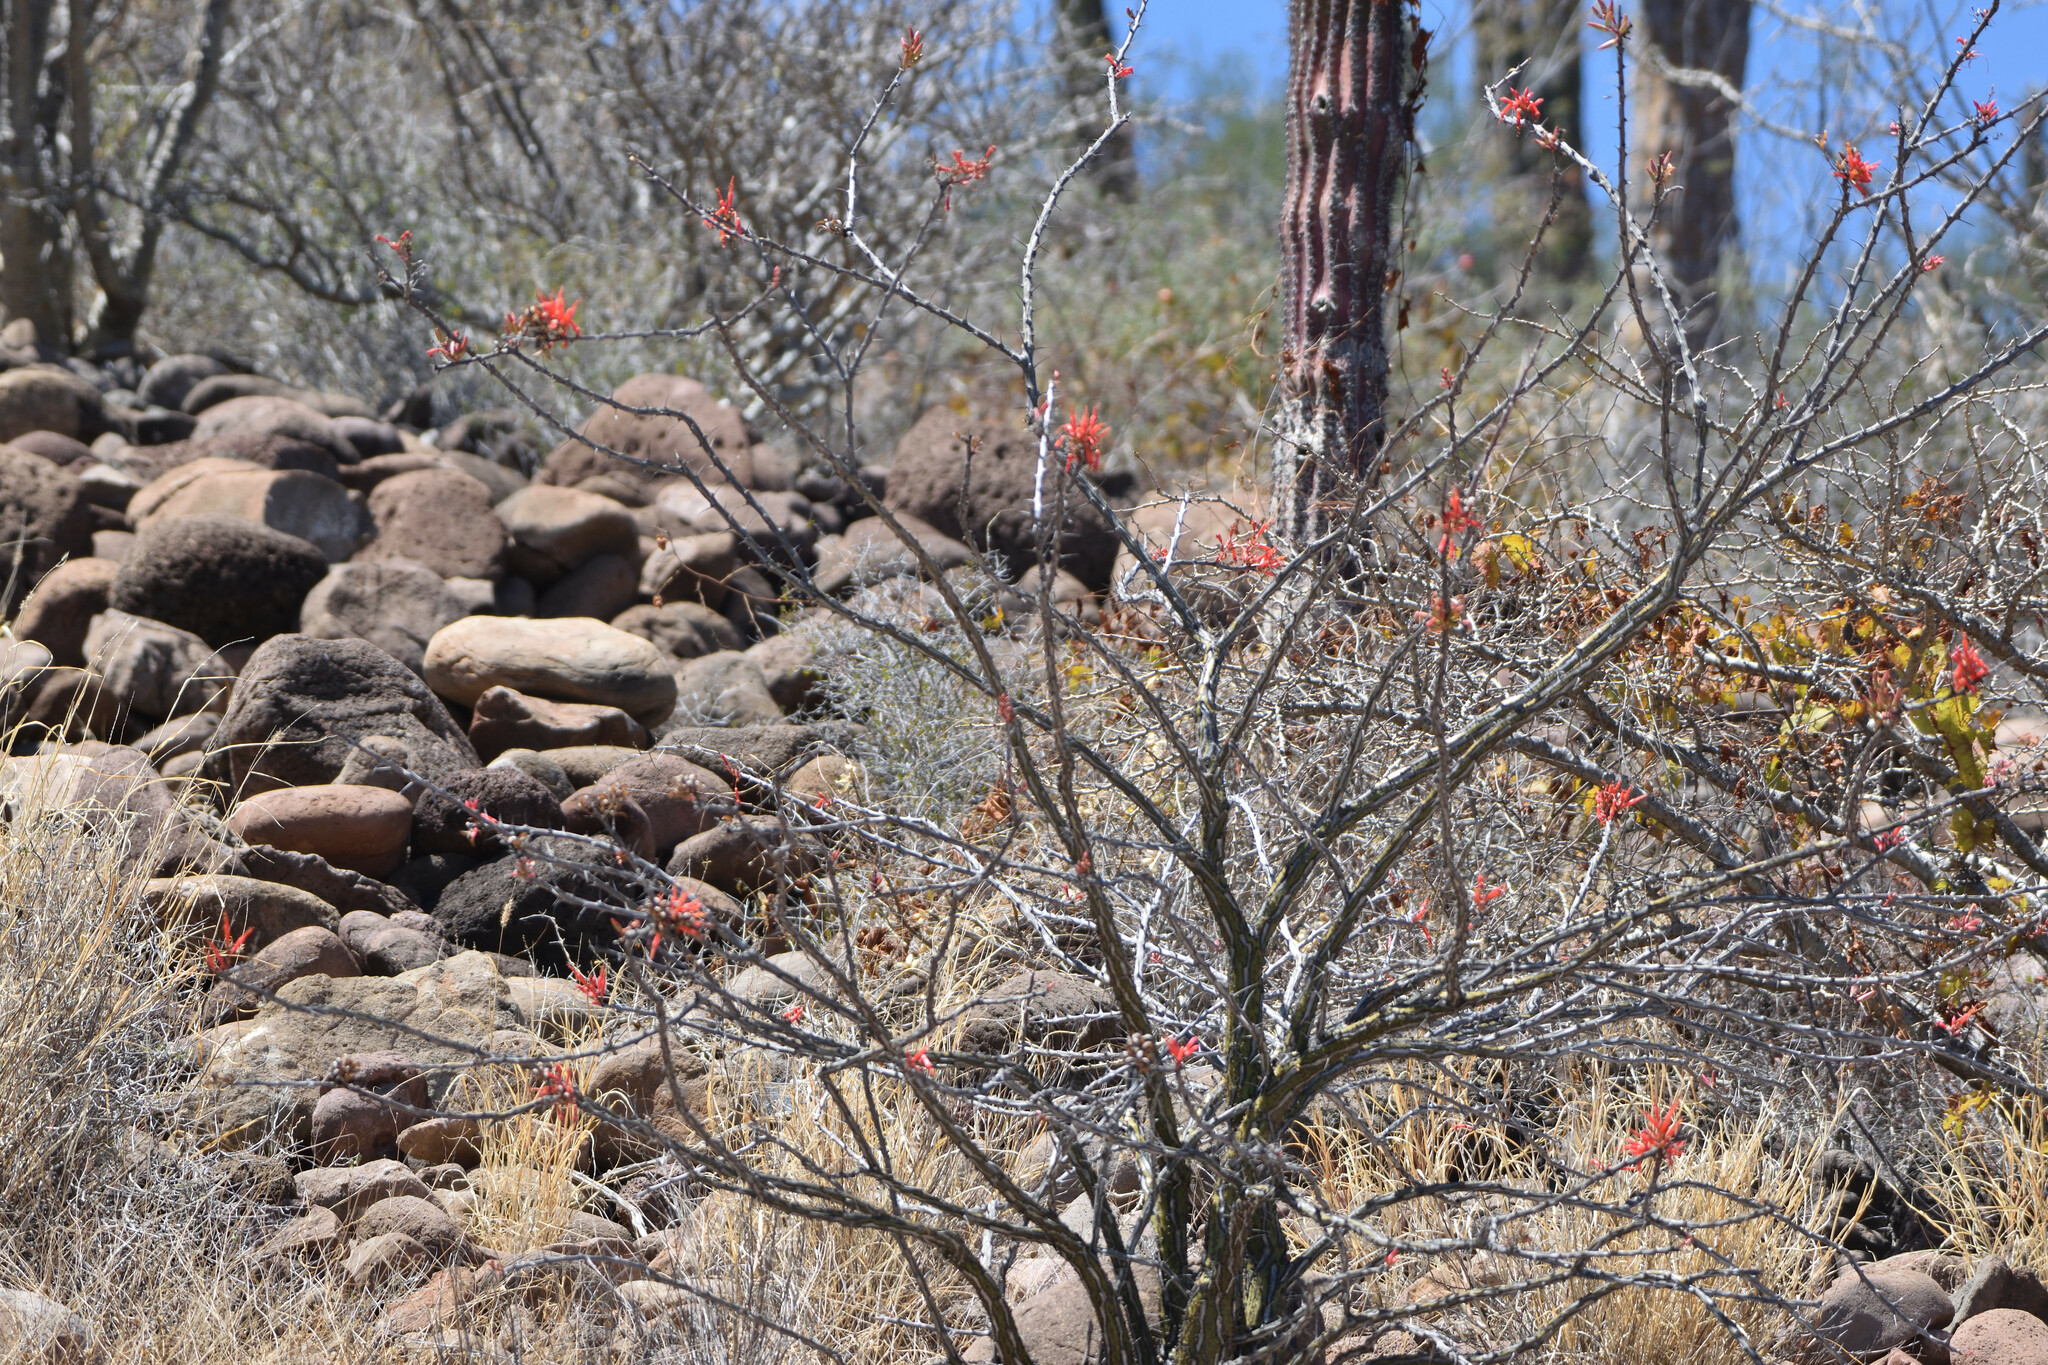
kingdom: Plantae
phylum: Tracheophyta
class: Magnoliopsida
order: Ericales
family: Fouquieriaceae
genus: Fouquieria
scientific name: Fouquieria diguetii
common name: Adam's tree
